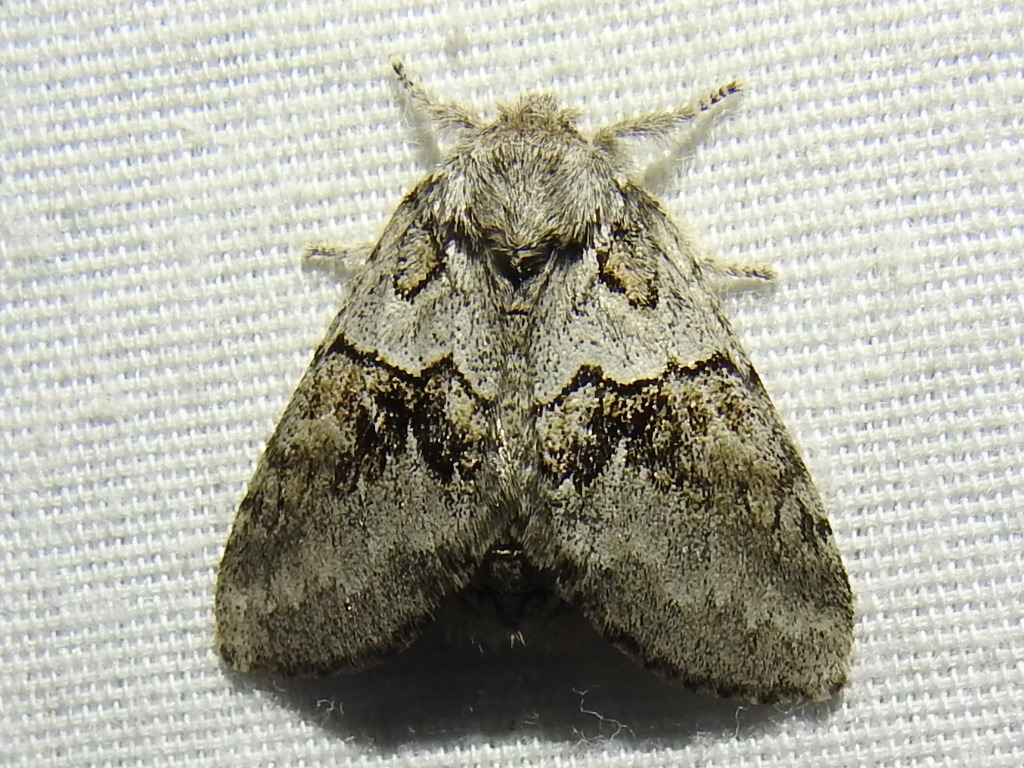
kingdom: Animalia
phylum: Arthropoda
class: Insecta
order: Lepidoptera
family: Notodontidae
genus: Gluphisia
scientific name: Gluphisia septentrionis
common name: Common gluphisia
